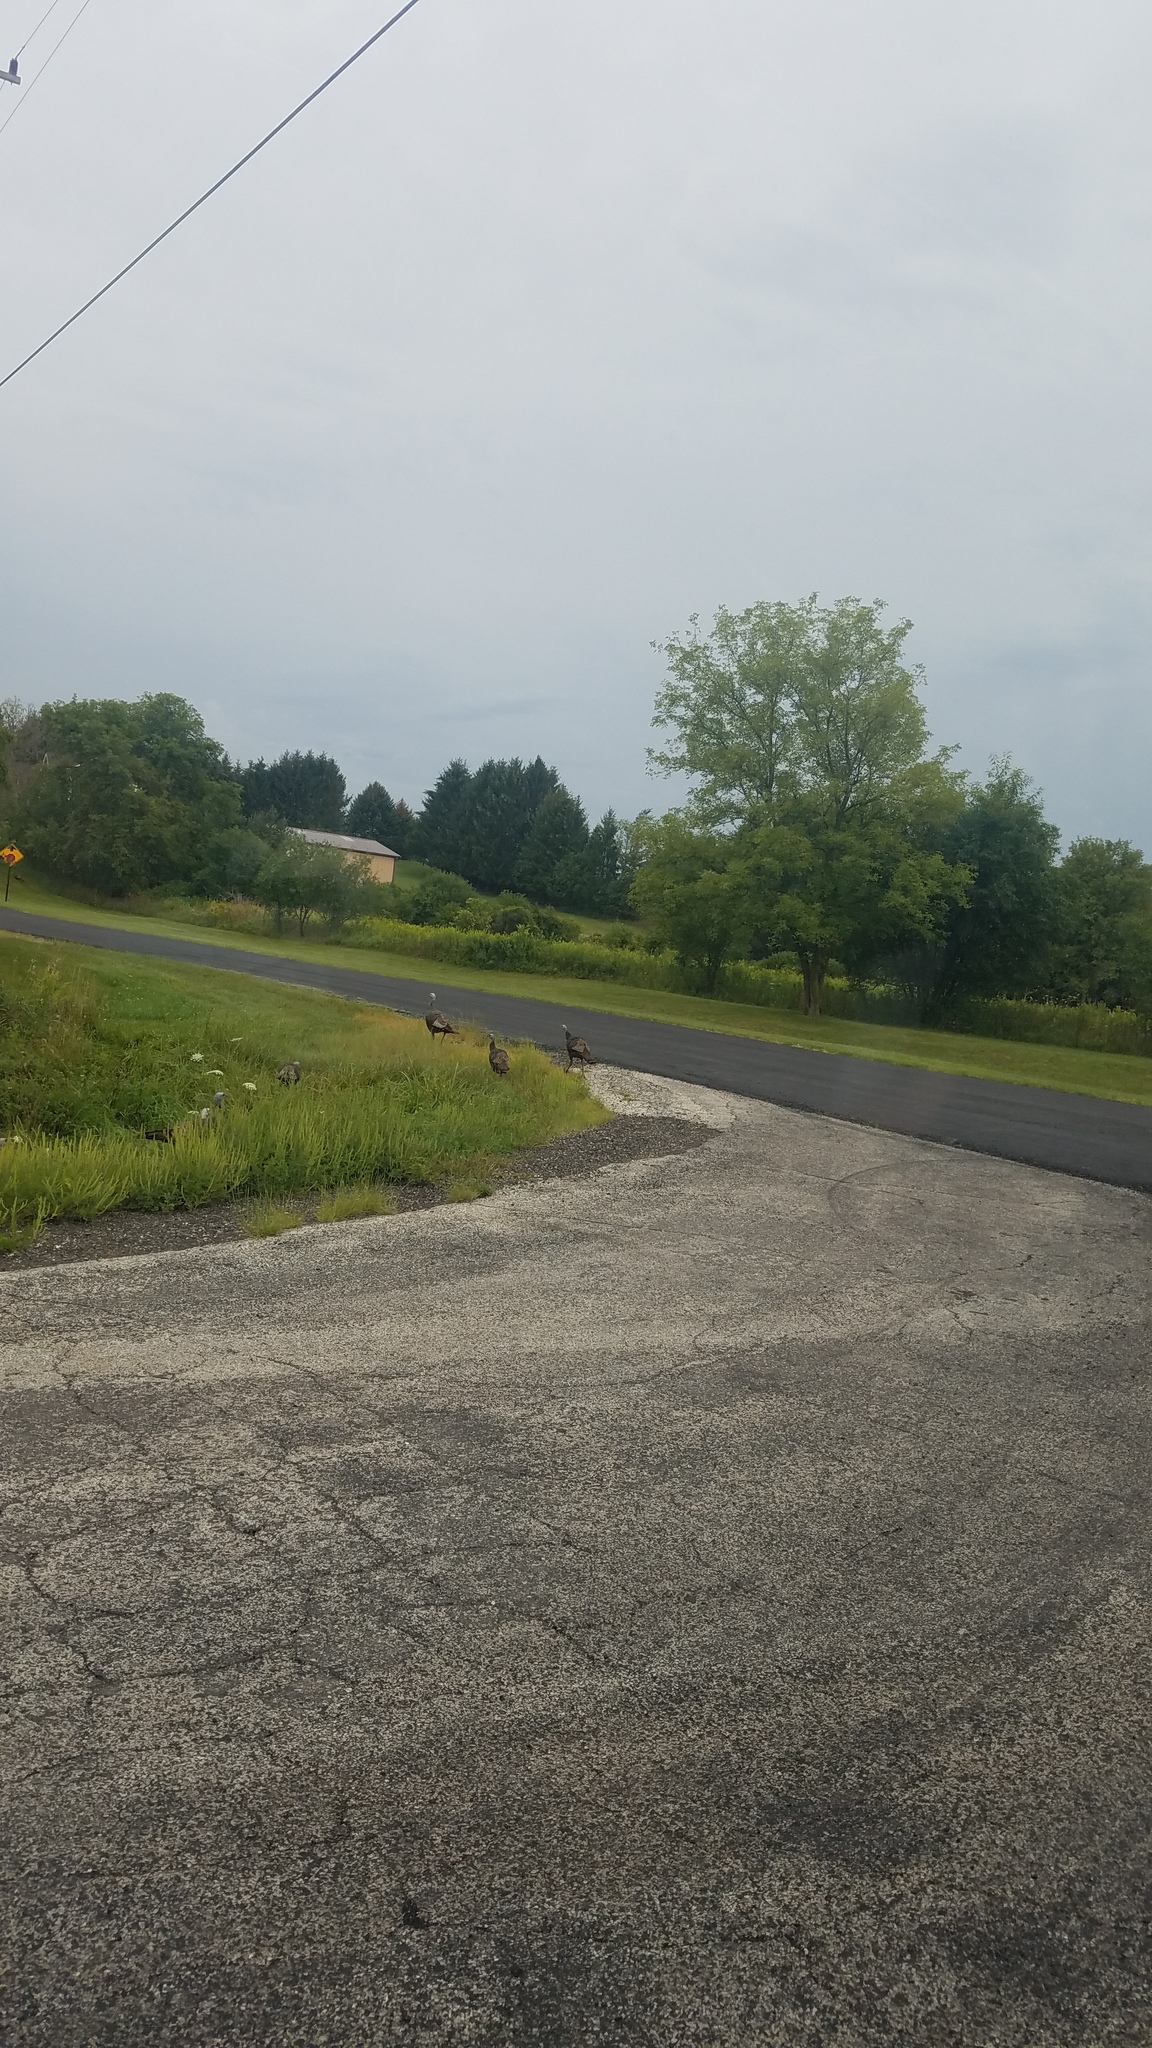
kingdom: Animalia
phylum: Chordata
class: Aves
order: Galliformes
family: Phasianidae
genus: Meleagris
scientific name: Meleagris gallopavo
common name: Wild turkey
